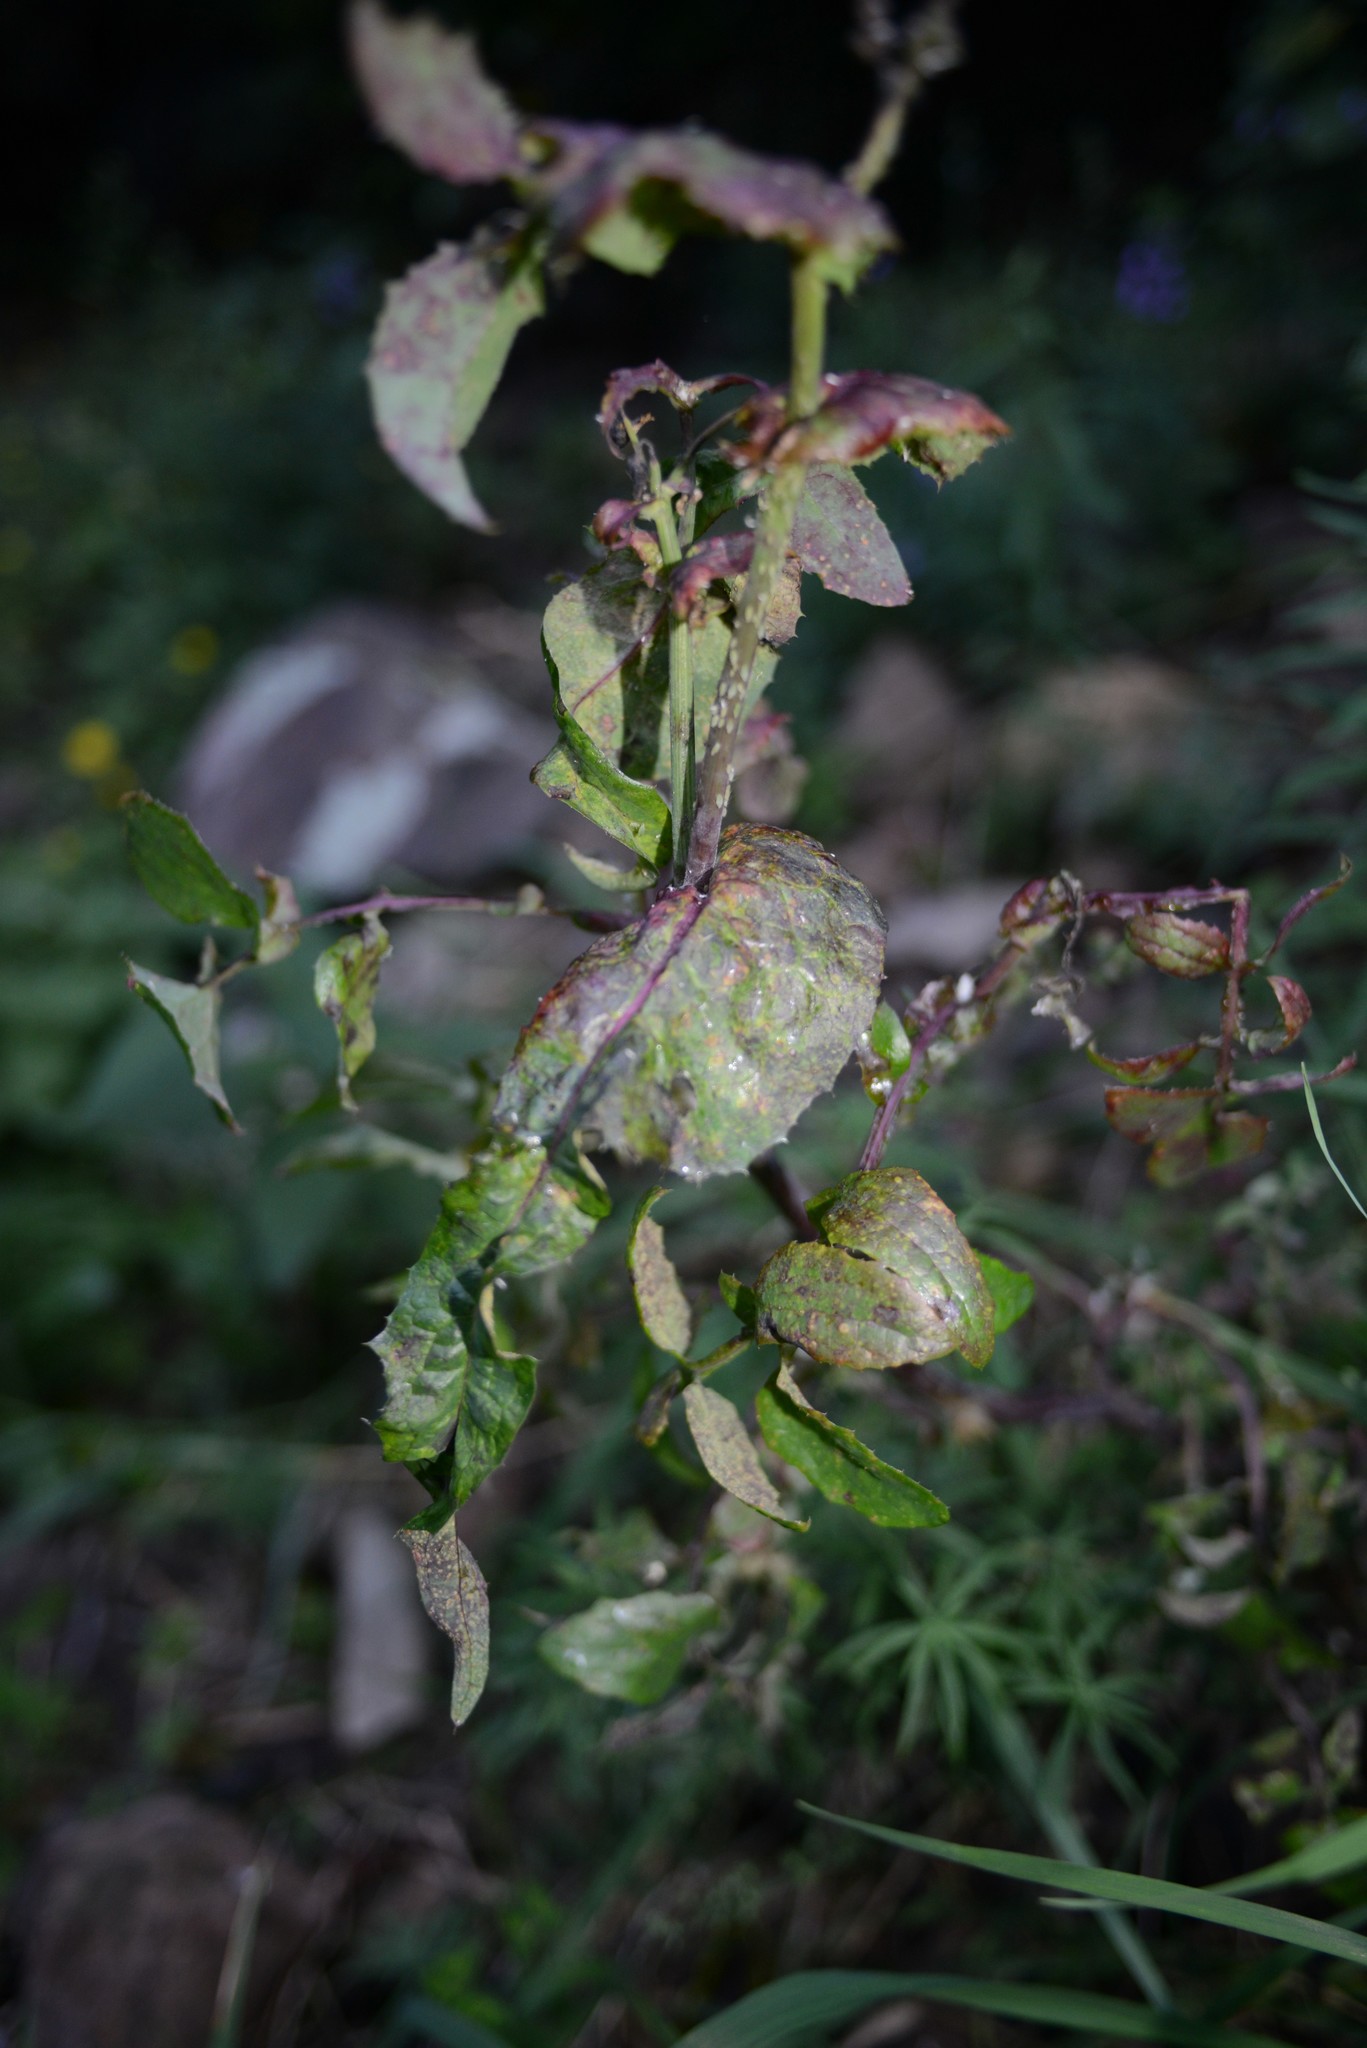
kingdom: Plantae
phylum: Tracheophyta
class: Magnoliopsida
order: Asterales
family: Asteraceae
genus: Sonchus
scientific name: Sonchus oleraceus
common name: Common sowthistle
